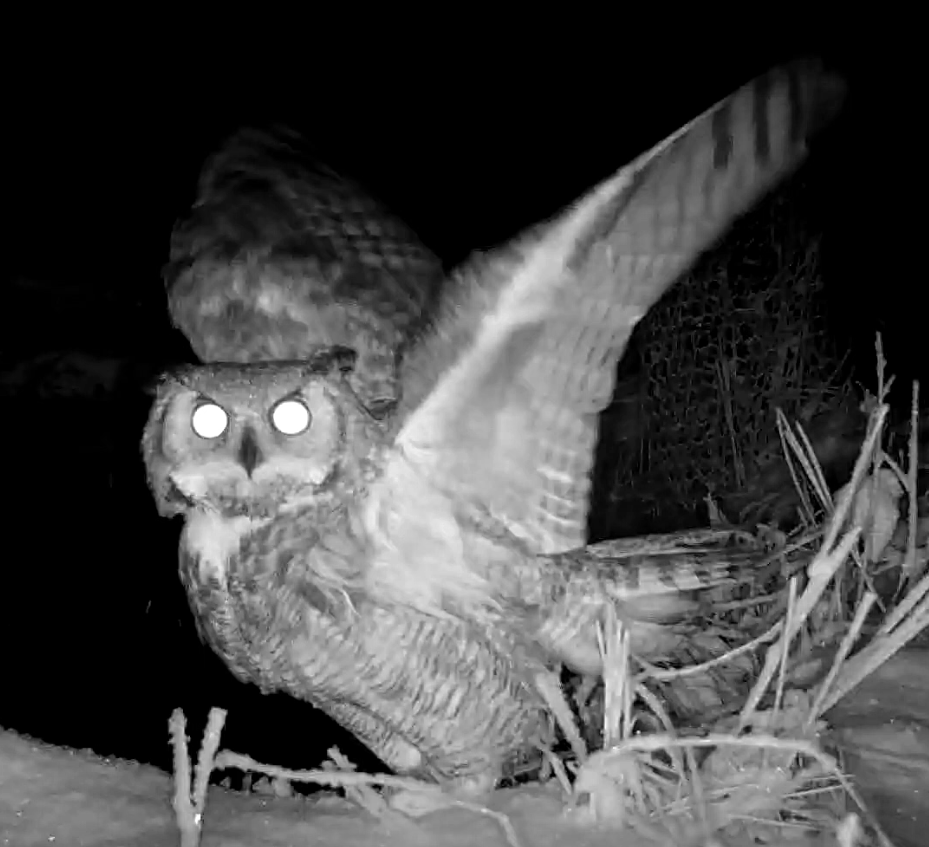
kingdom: Animalia
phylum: Chordata
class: Aves
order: Strigiformes
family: Strigidae
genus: Bubo
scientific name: Bubo virginianus
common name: Great horned owl
